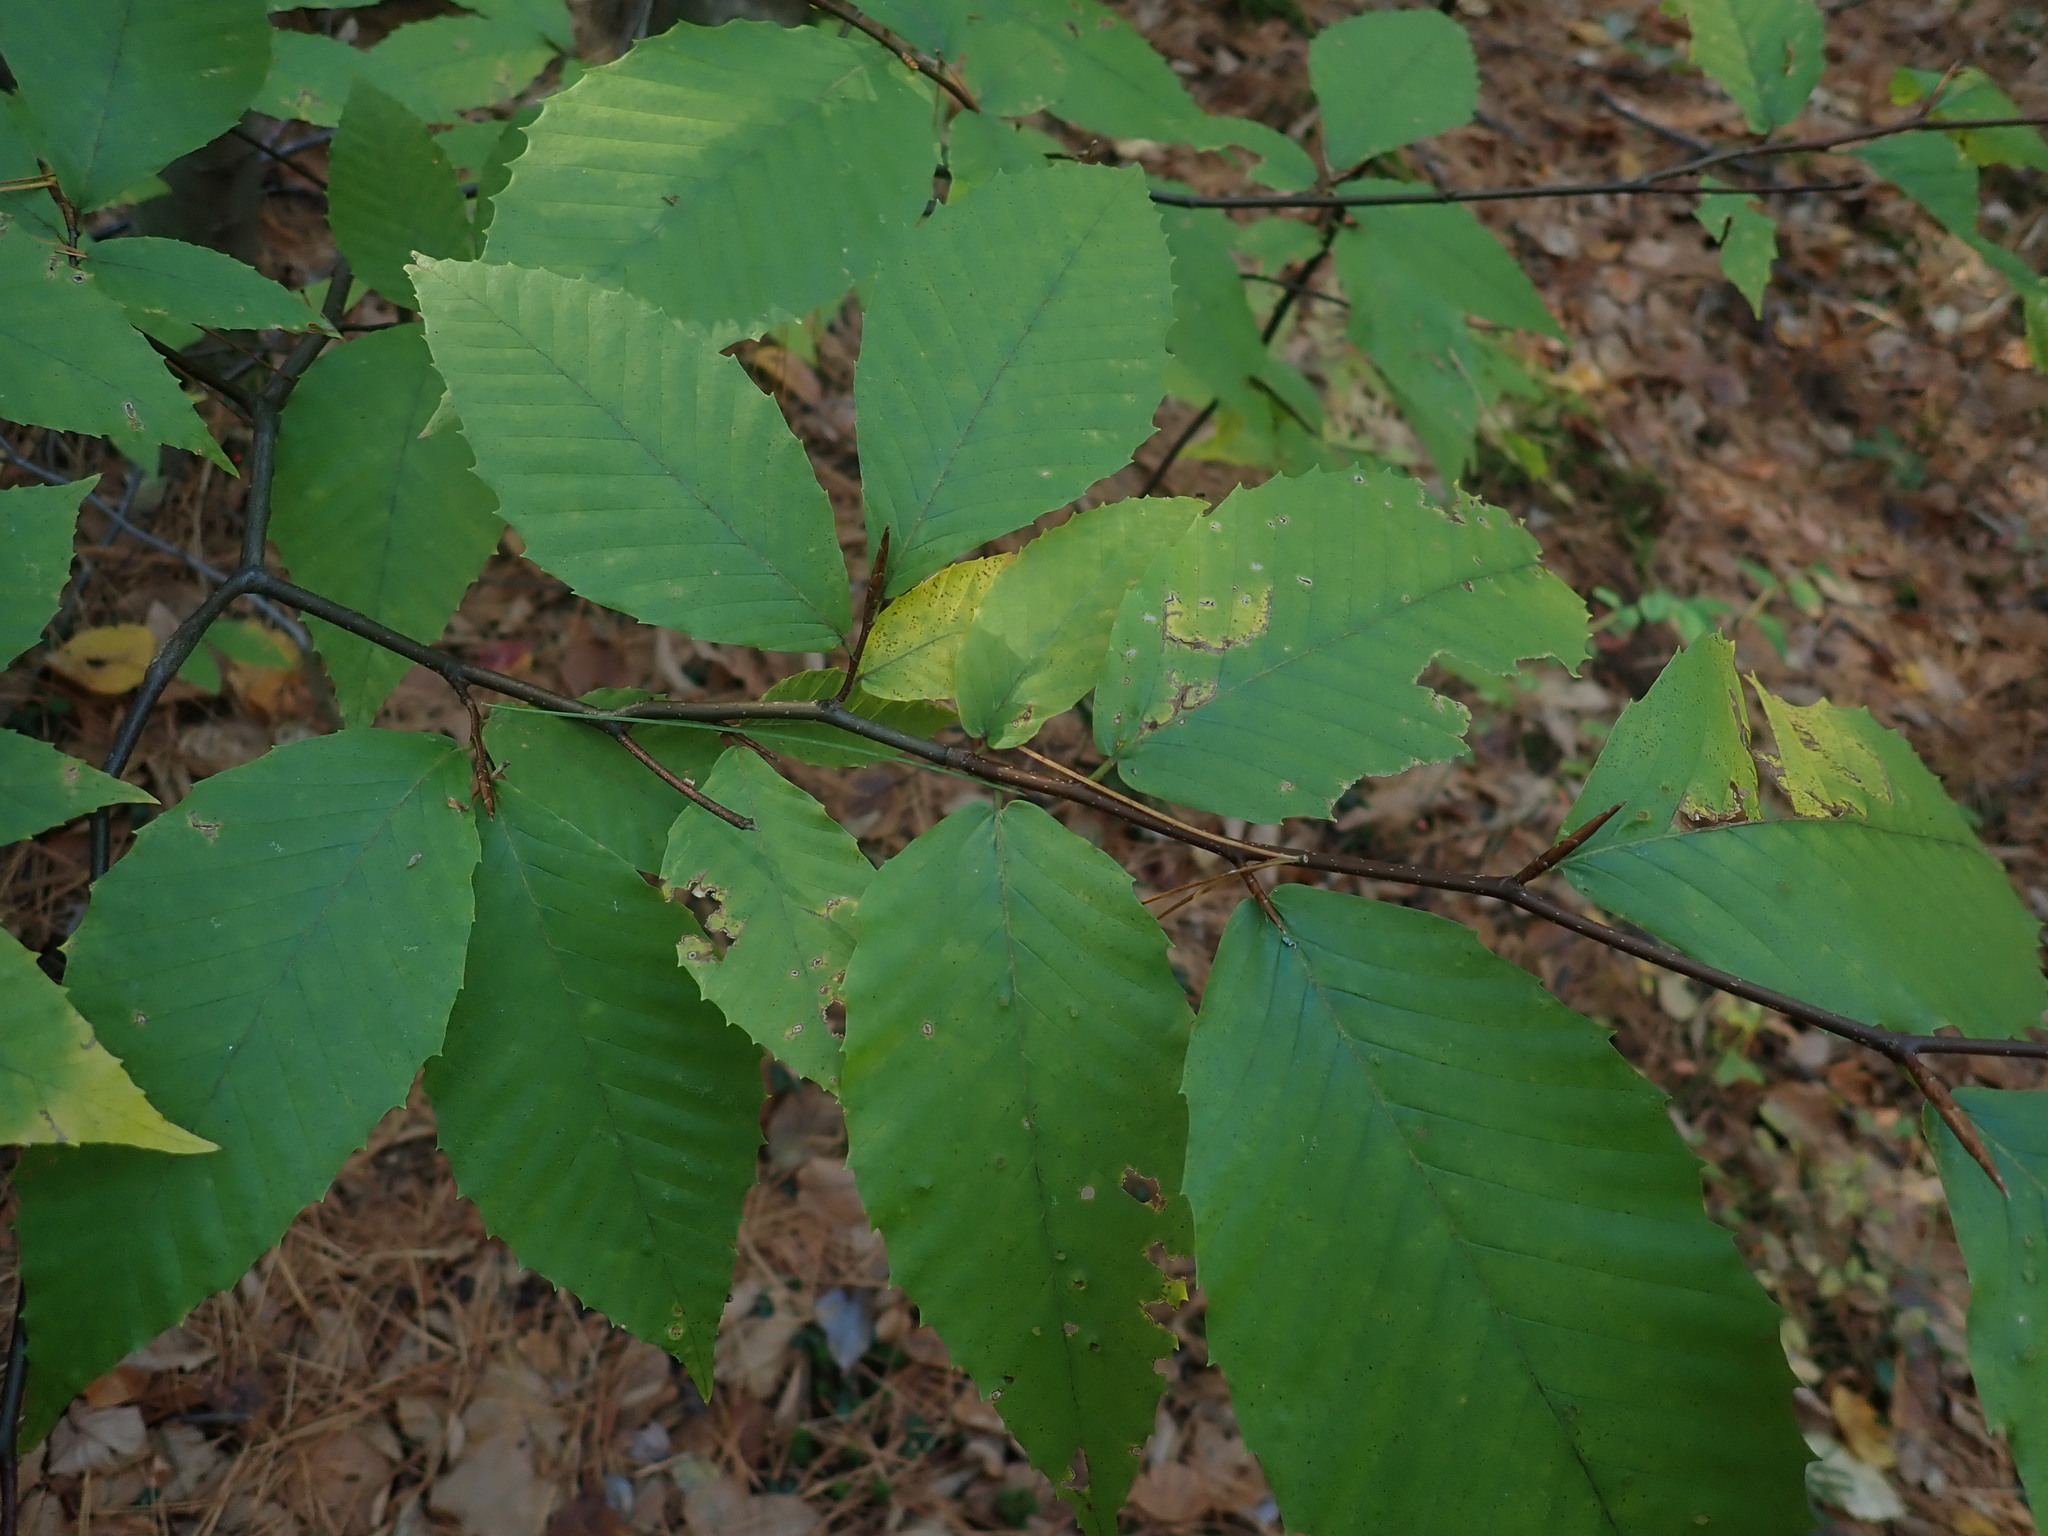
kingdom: Plantae
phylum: Tracheophyta
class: Magnoliopsida
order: Fagales
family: Fagaceae
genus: Fagus
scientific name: Fagus grandifolia
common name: American beech
